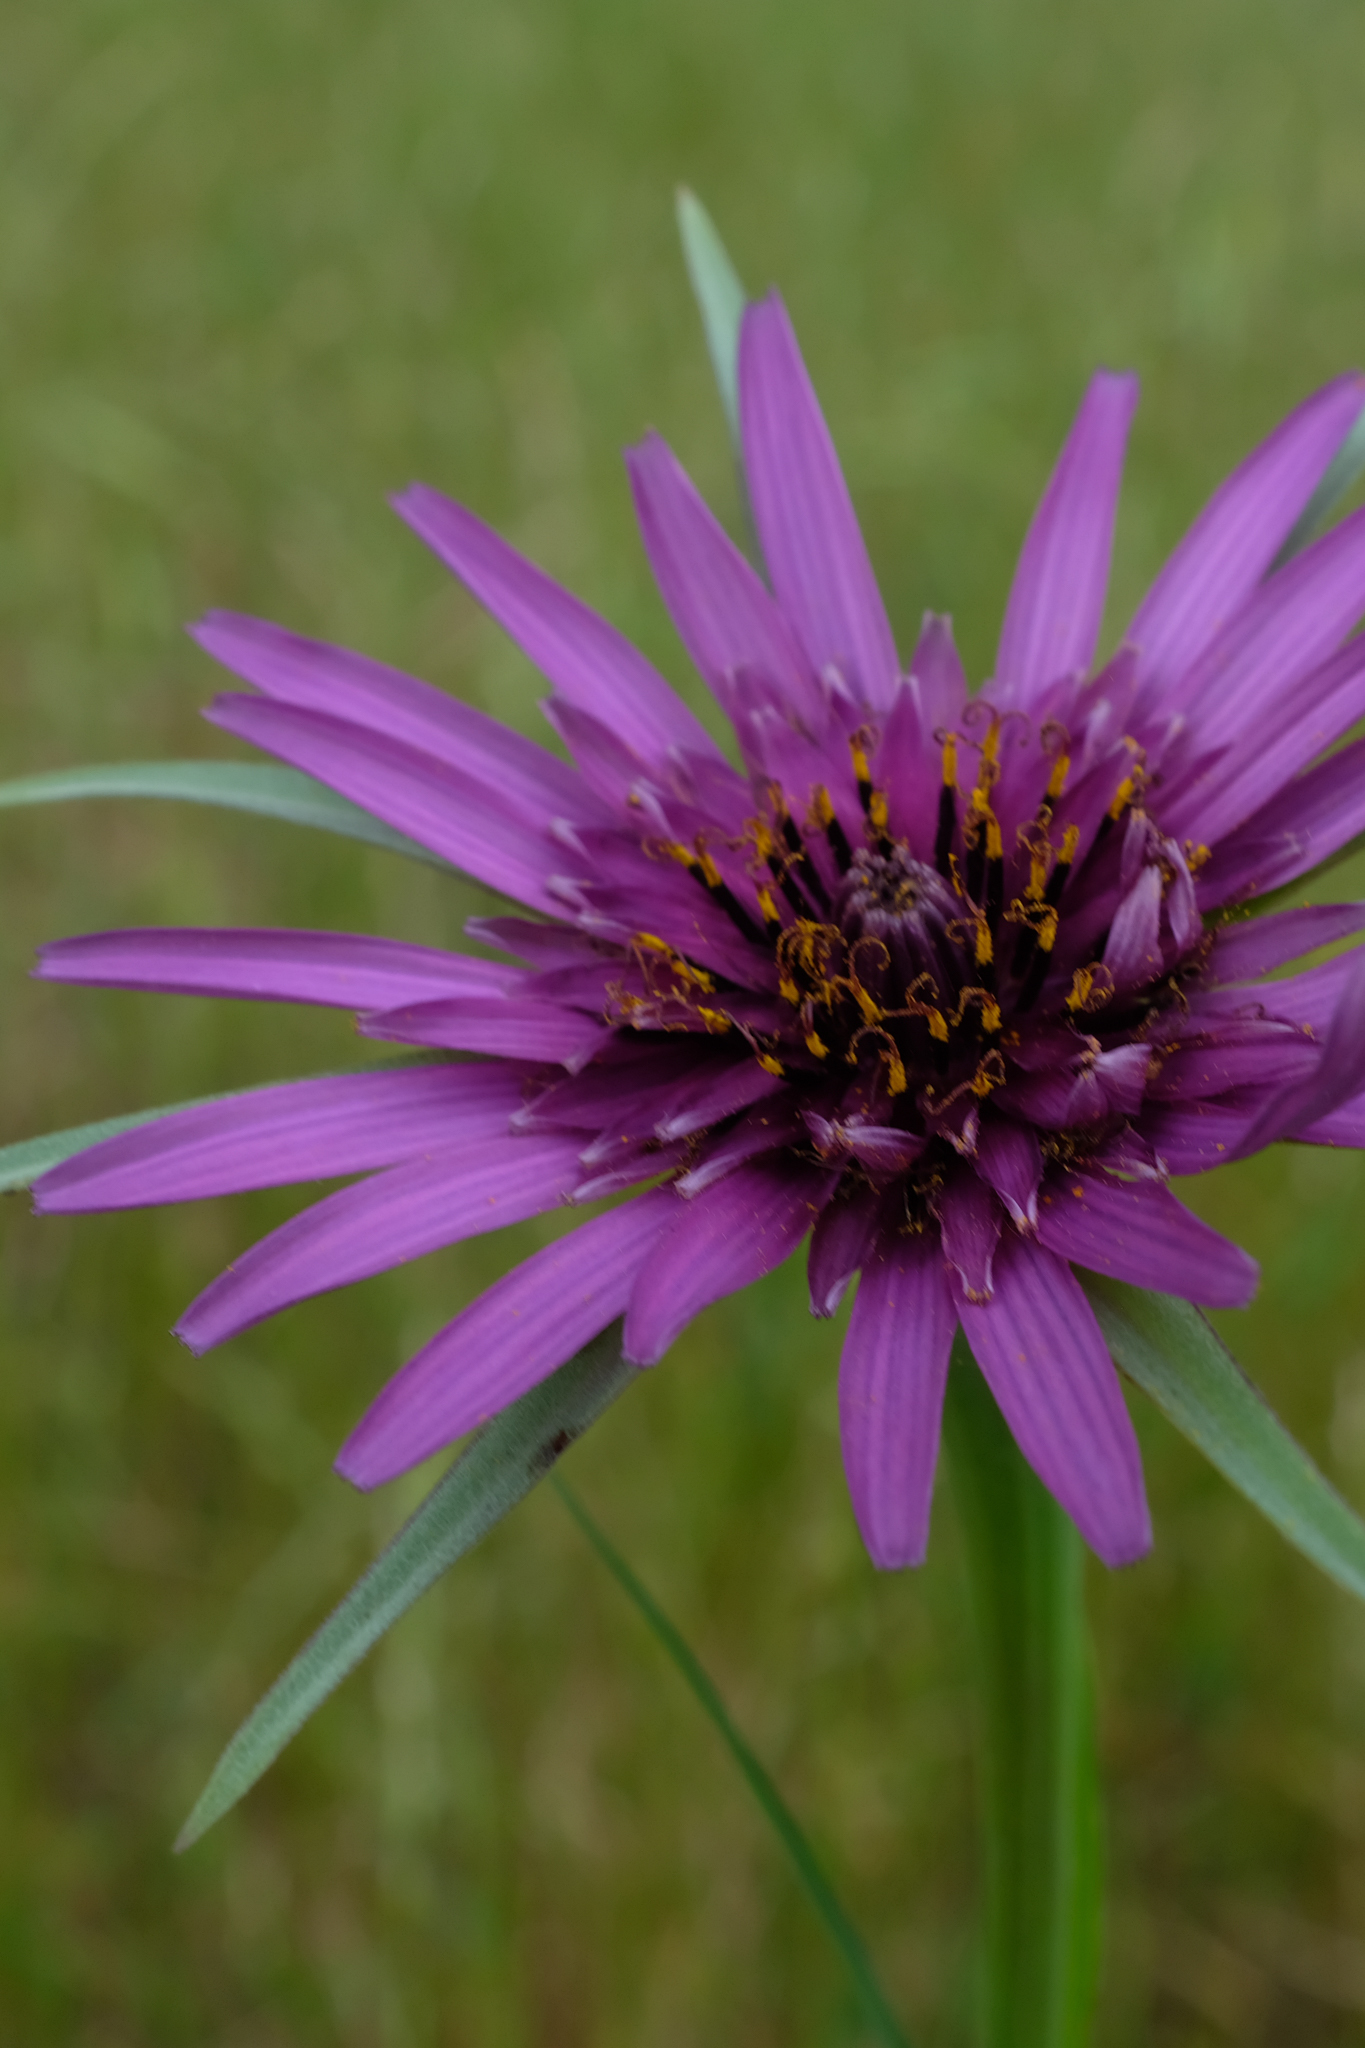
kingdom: Plantae
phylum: Tracheophyta
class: Magnoliopsida
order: Asterales
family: Asteraceae
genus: Tragopogon
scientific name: Tragopogon porrifolius
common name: Salsify
